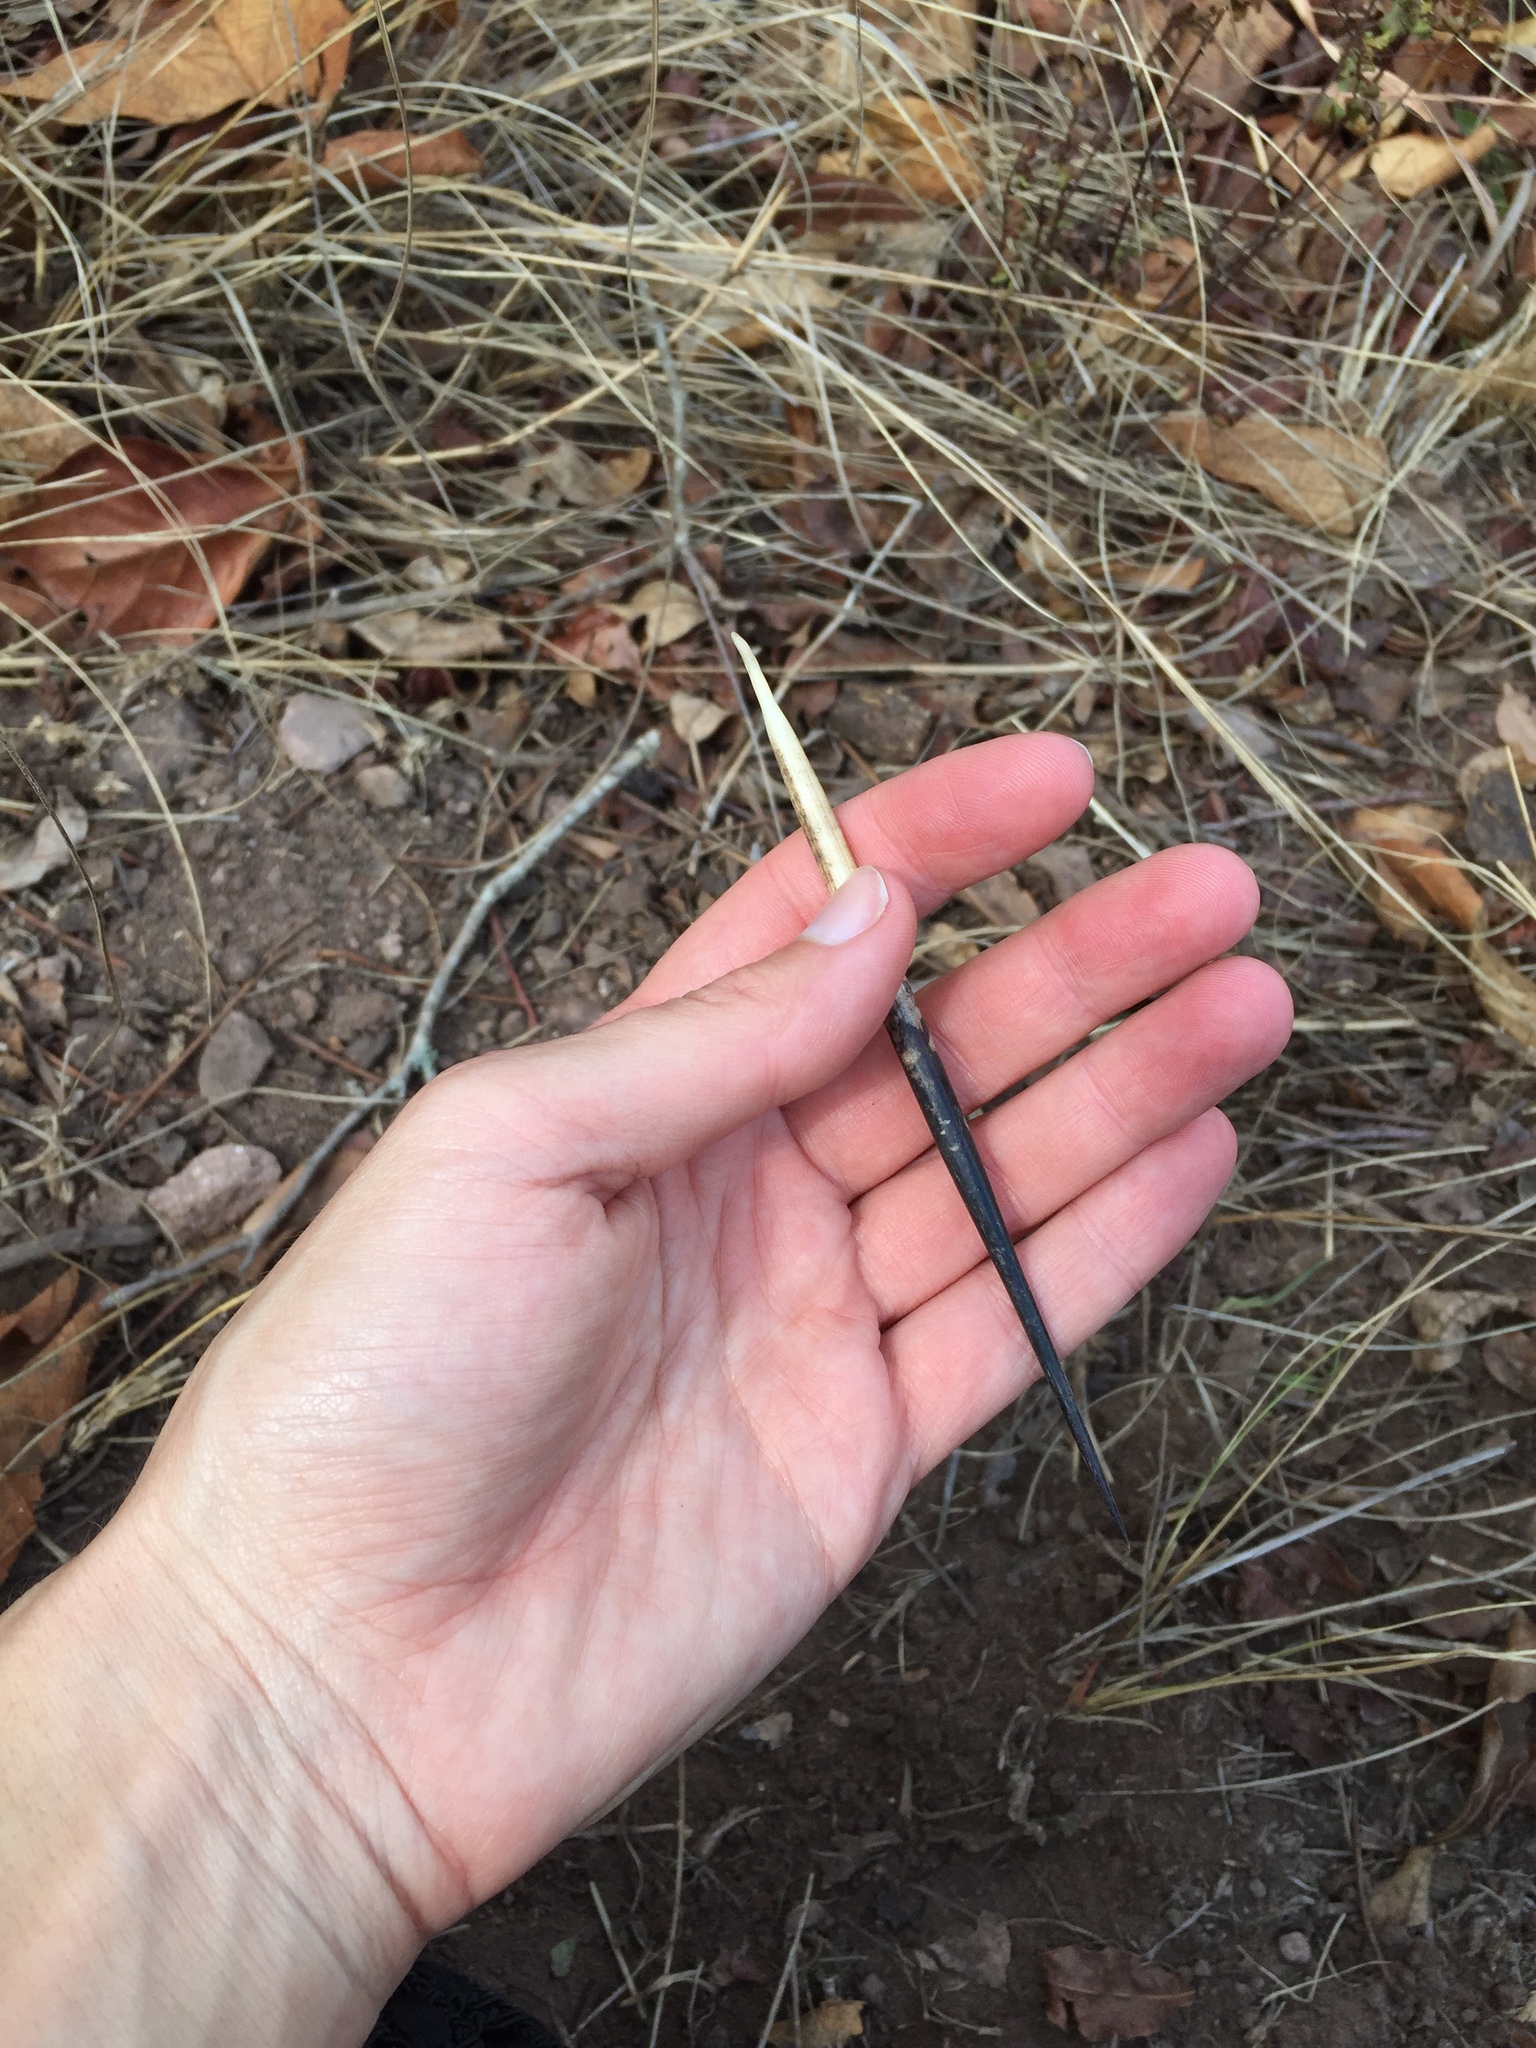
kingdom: Animalia
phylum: Chordata
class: Mammalia
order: Rodentia
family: Hystricidae
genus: Hystrix
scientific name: Hystrix africaeaustralis
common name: Cape porcupine
